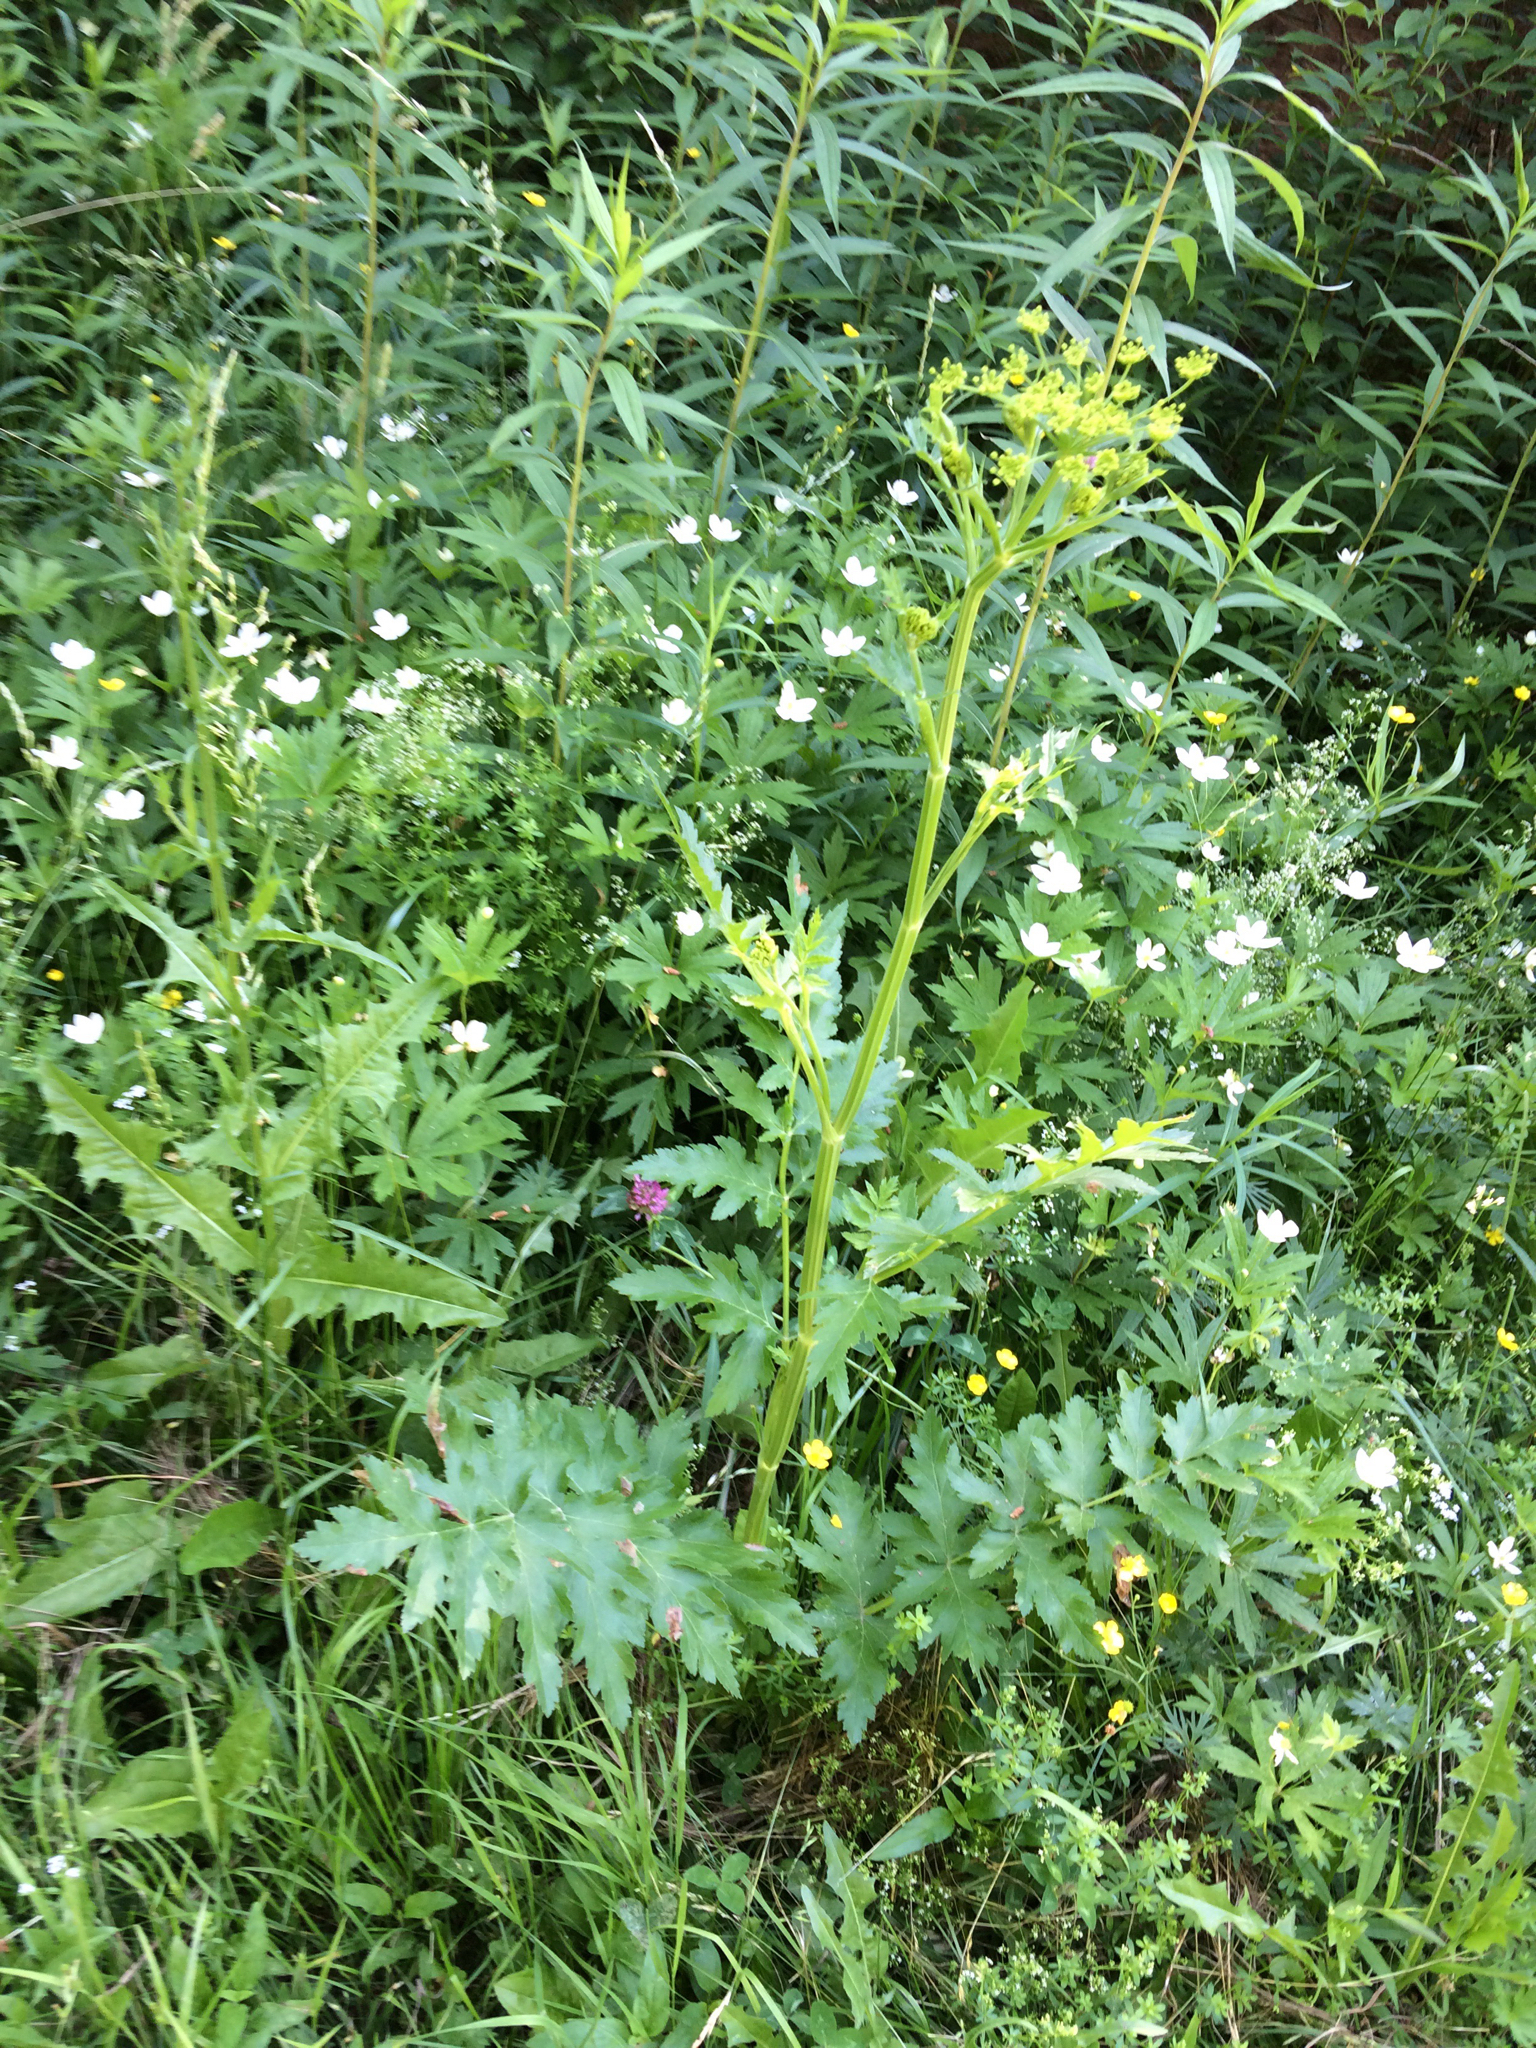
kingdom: Plantae
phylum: Tracheophyta
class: Magnoliopsida
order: Apiales
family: Apiaceae
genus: Pastinaca
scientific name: Pastinaca sativa
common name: Wild parsnip
